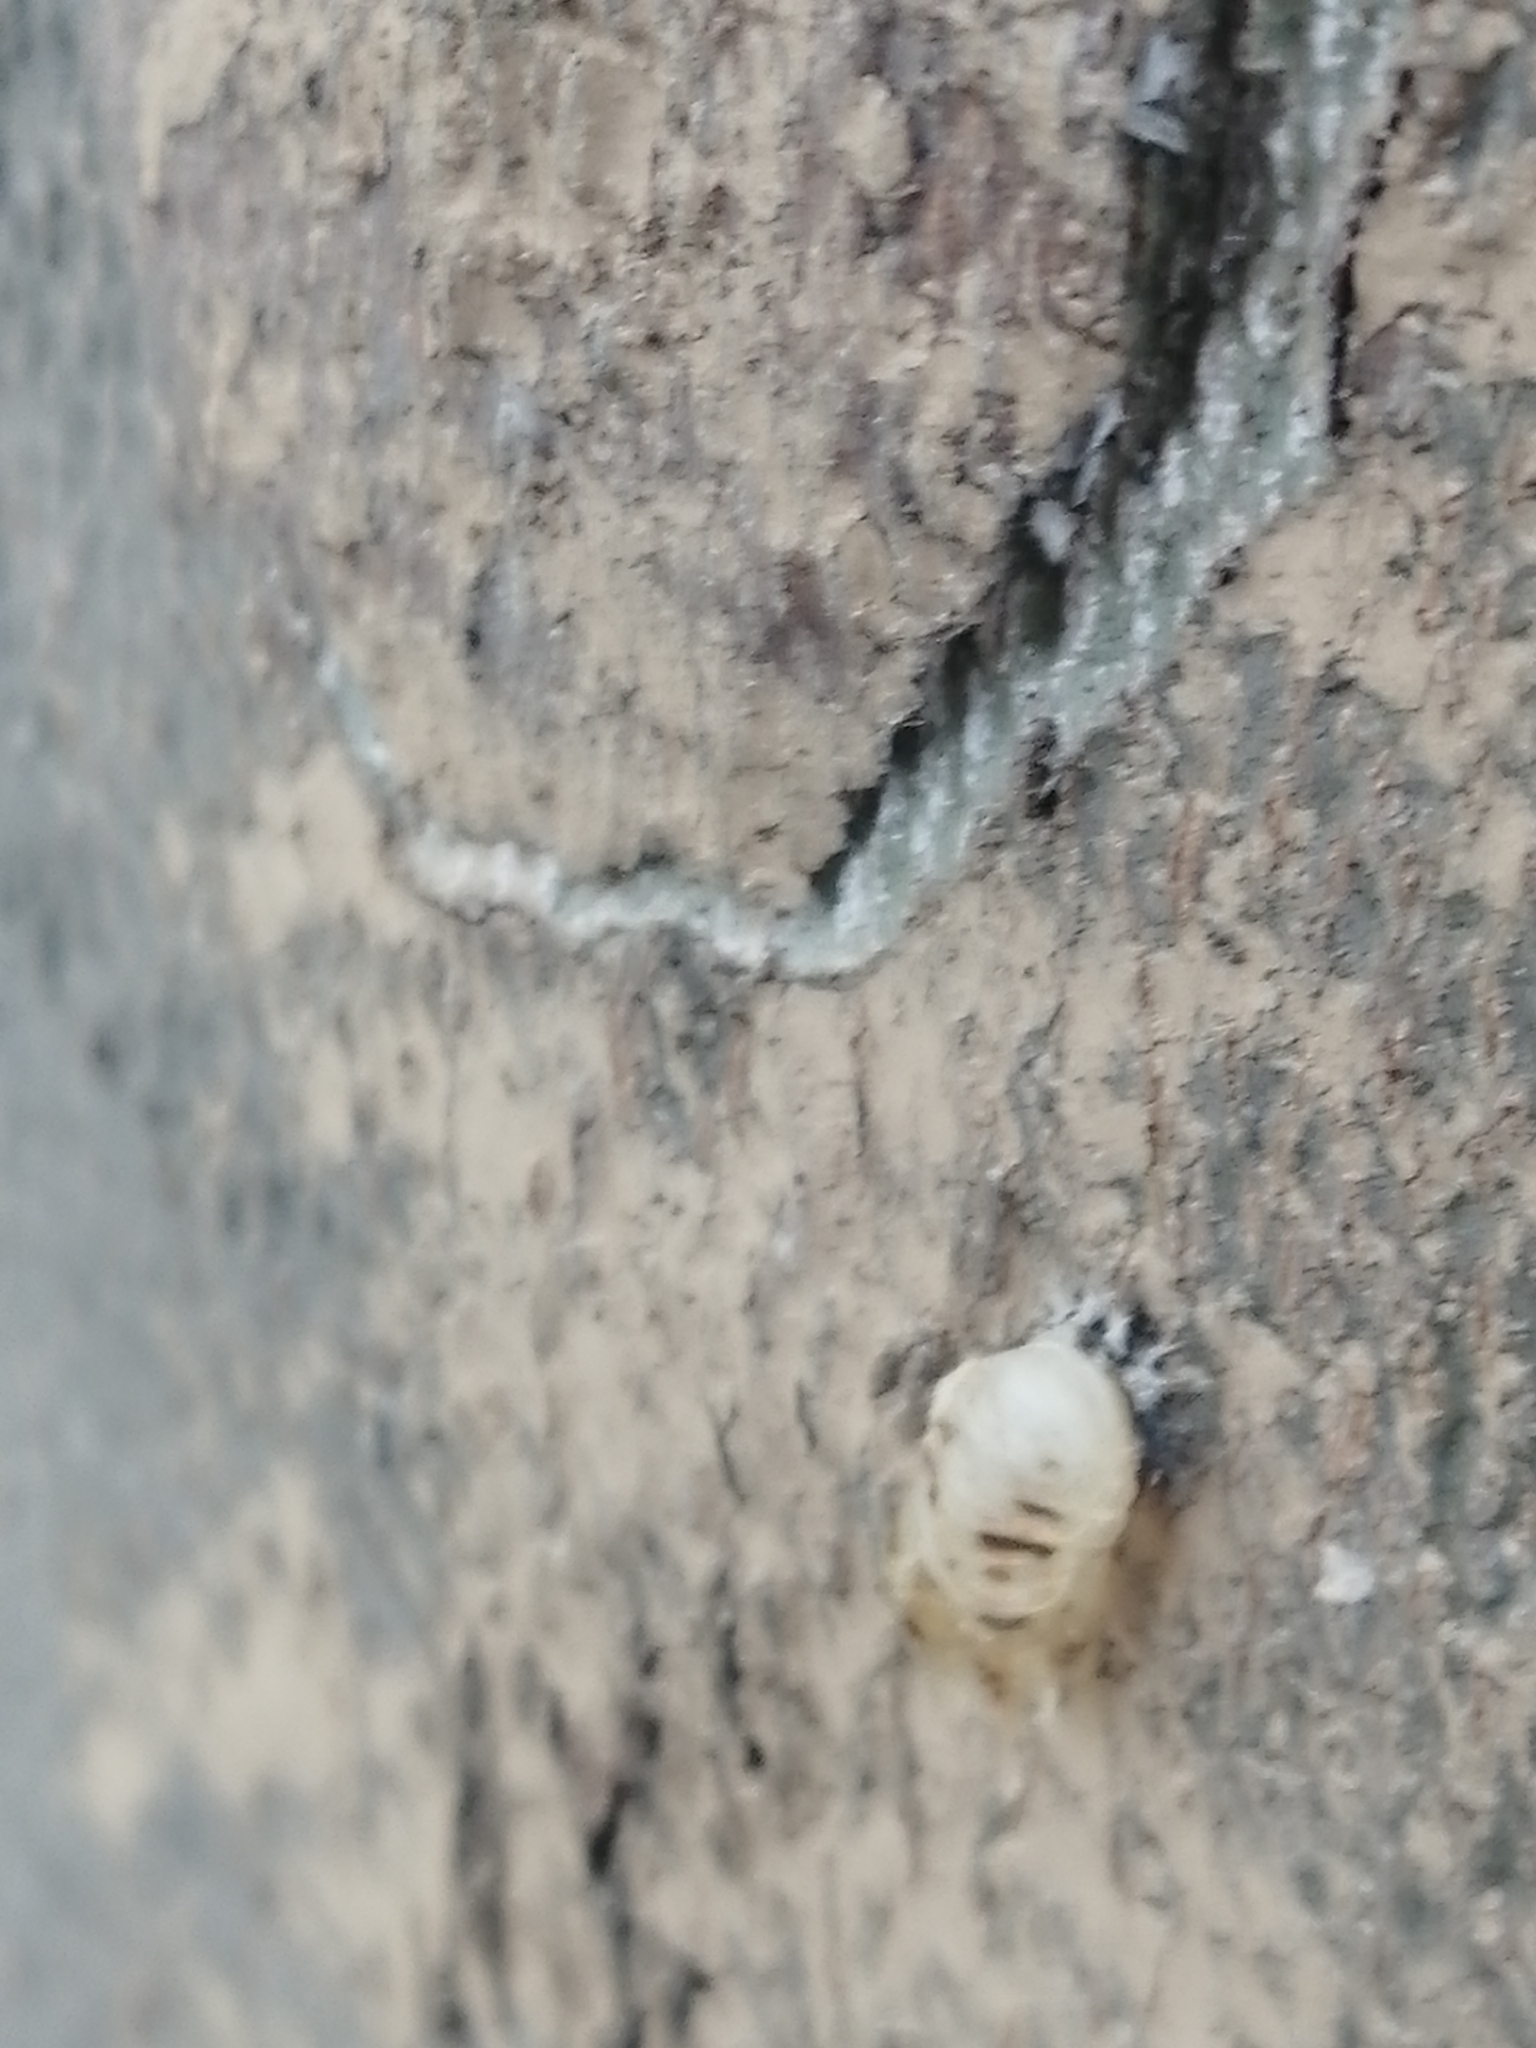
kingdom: Animalia
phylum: Arthropoda
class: Insecta
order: Coleoptera
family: Coccinellidae
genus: Harmonia
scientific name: Harmonia axyridis
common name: Harlequin ladybird
